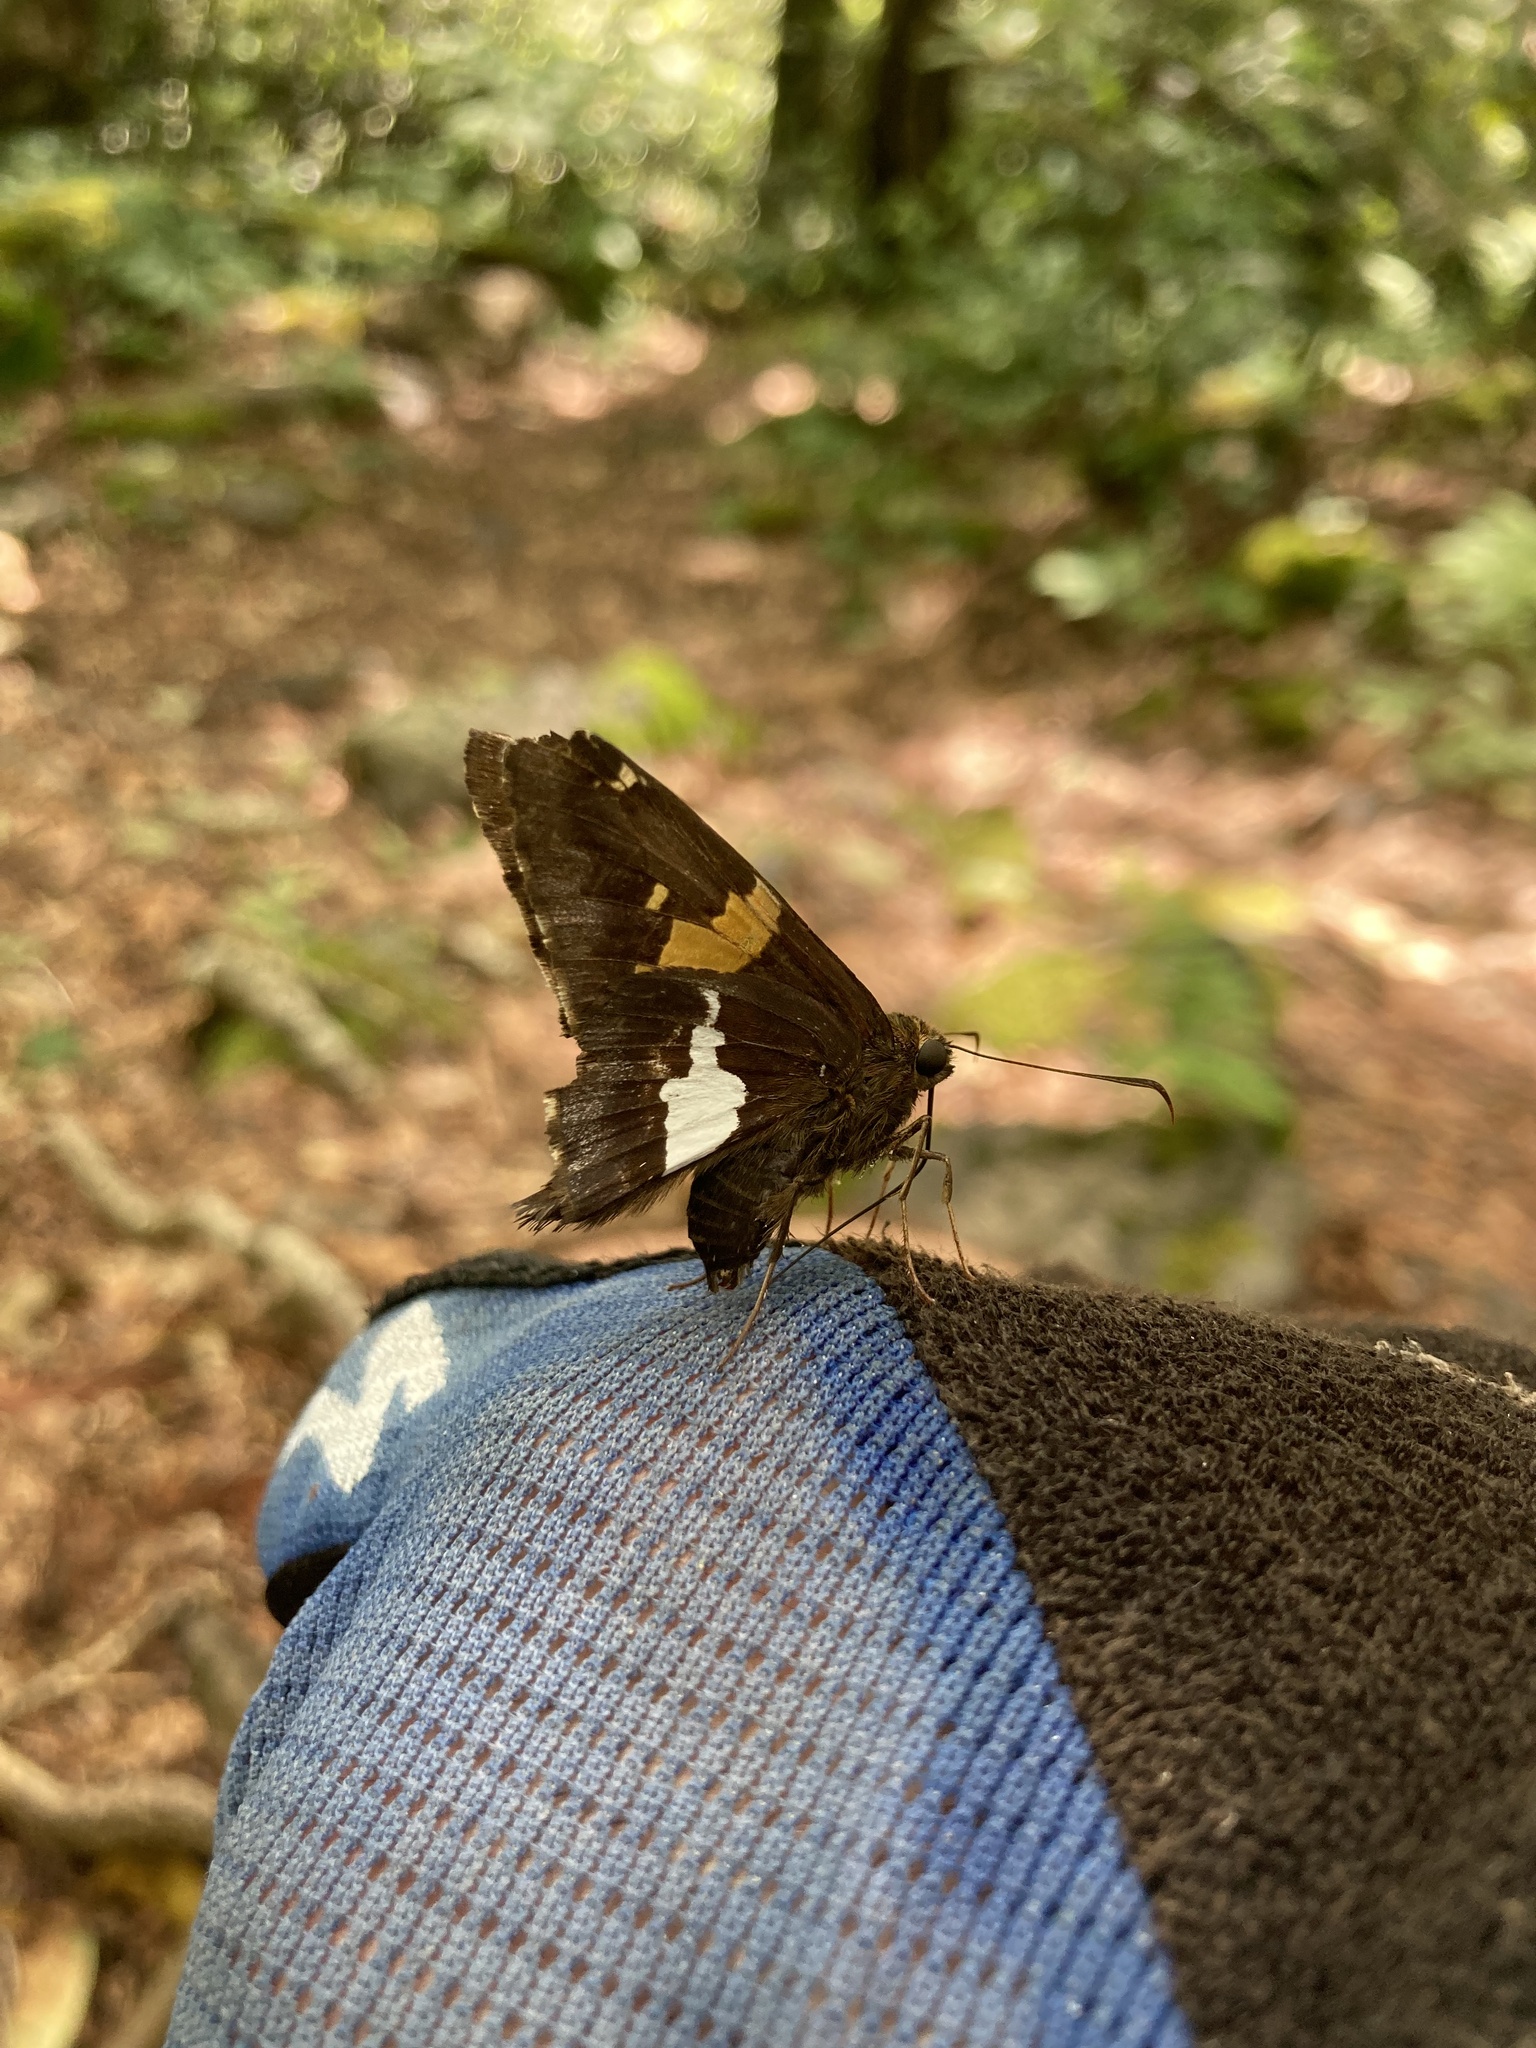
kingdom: Animalia
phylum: Arthropoda
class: Insecta
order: Lepidoptera
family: Hesperiidae
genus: Epargyreus
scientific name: Epargyreus clarus
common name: Silver-spotted skipper
